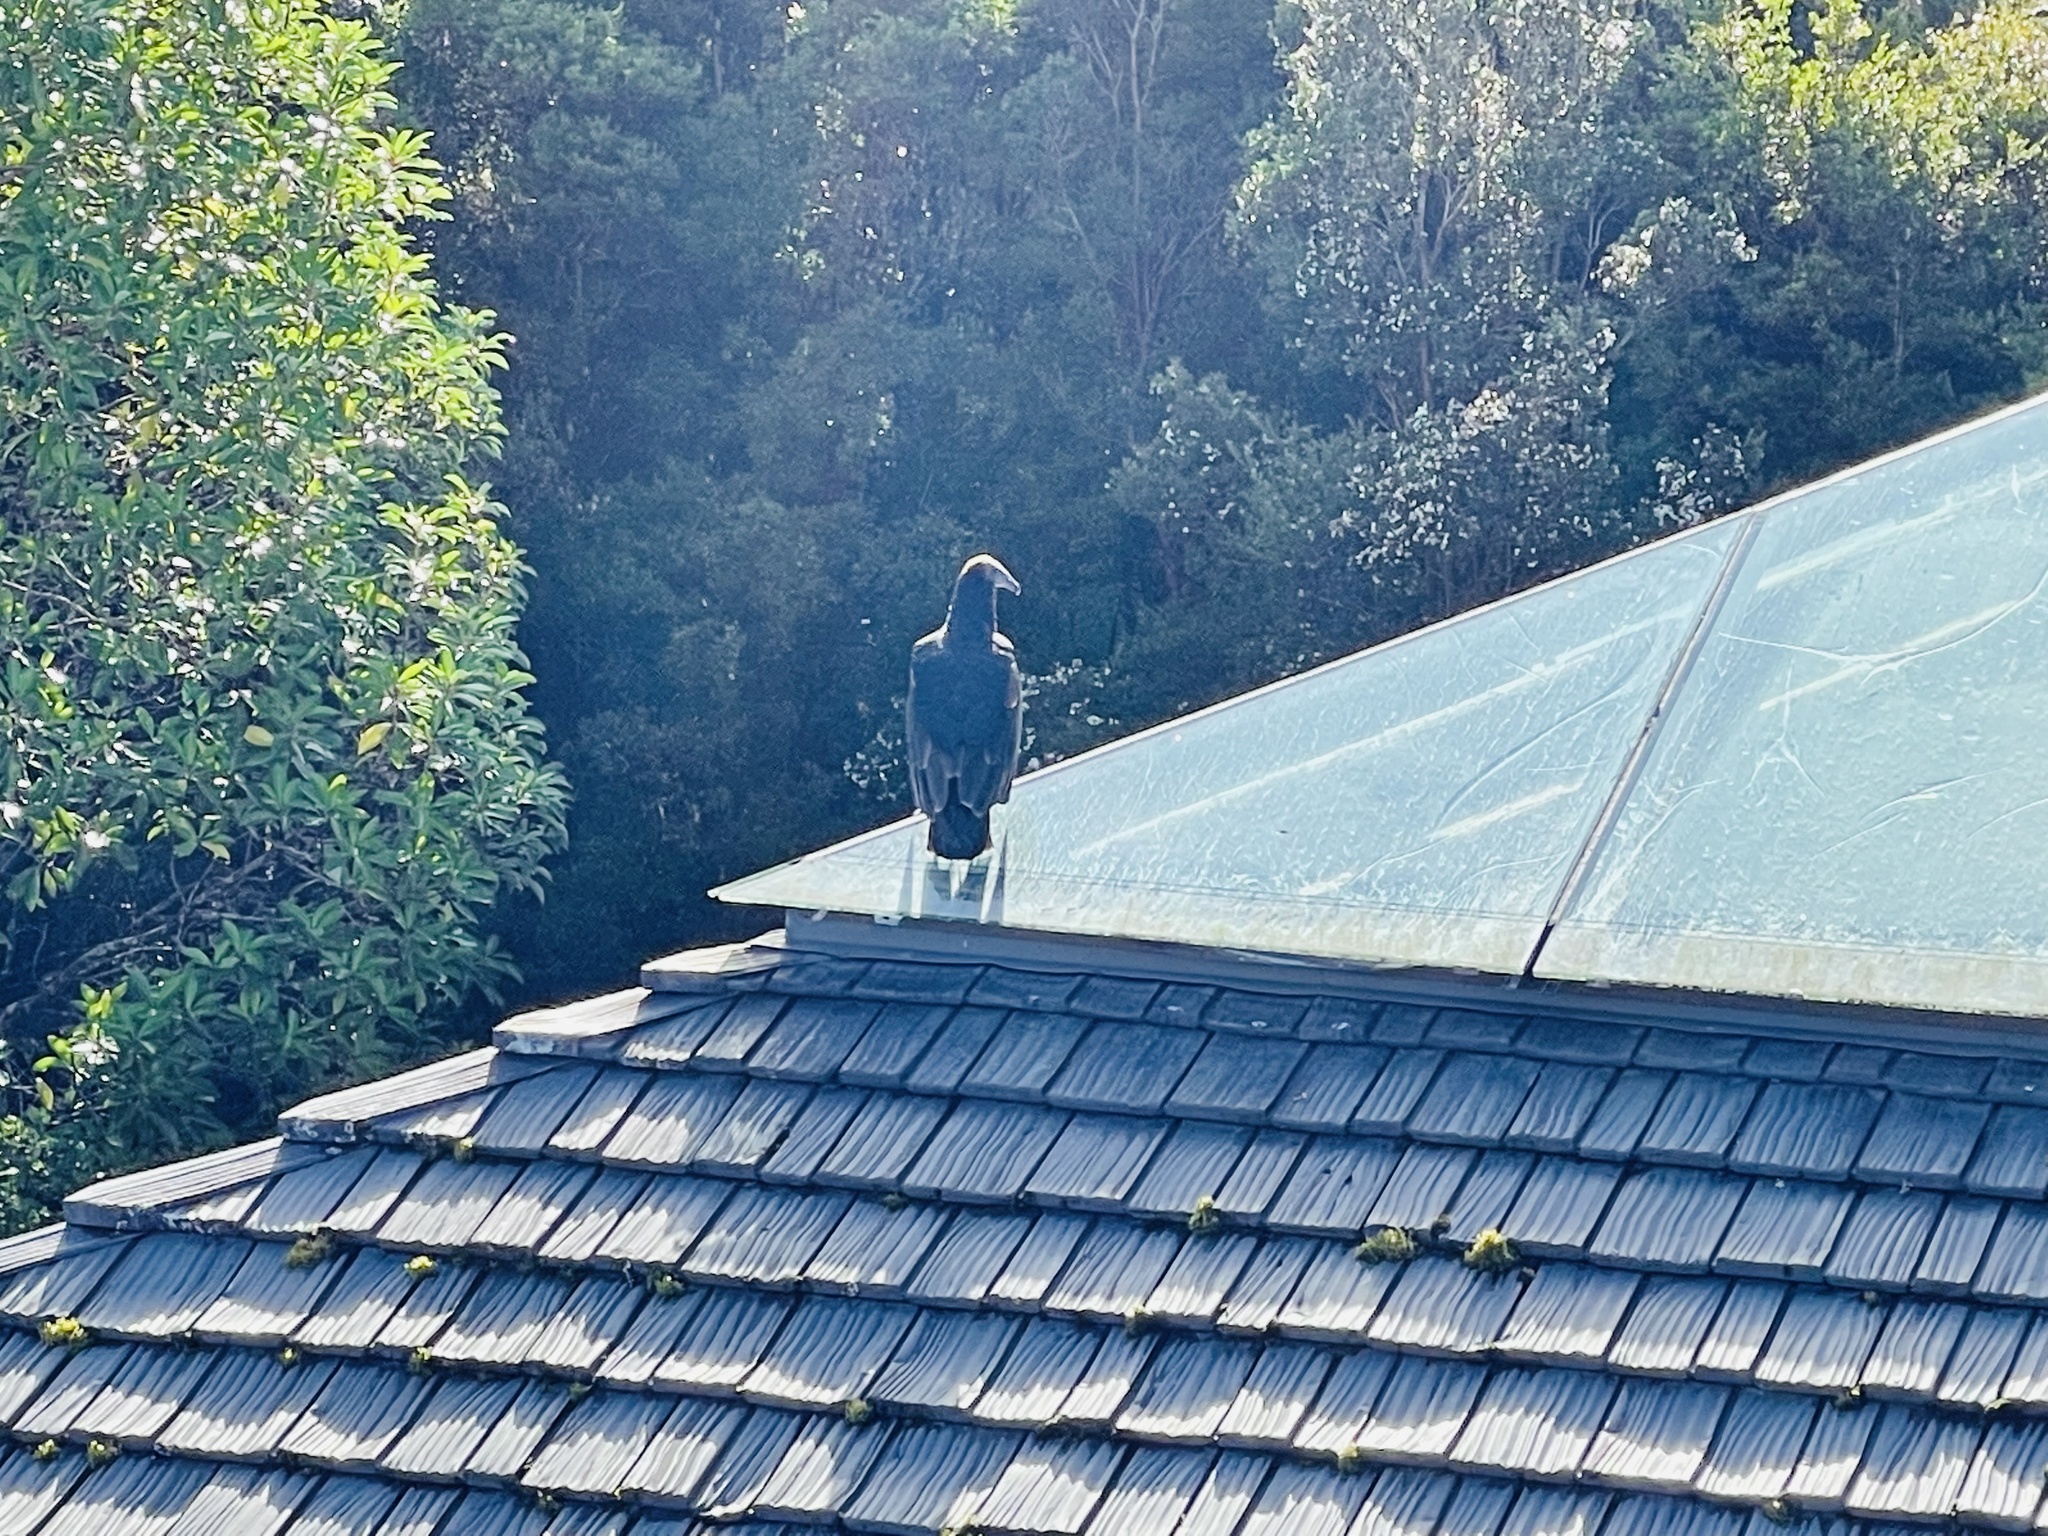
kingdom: Animalia
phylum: Chordata
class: Aves
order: Accipitriformes
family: Cathartidae
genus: Cathartes
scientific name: Cathartes aura
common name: Turkey vulture
